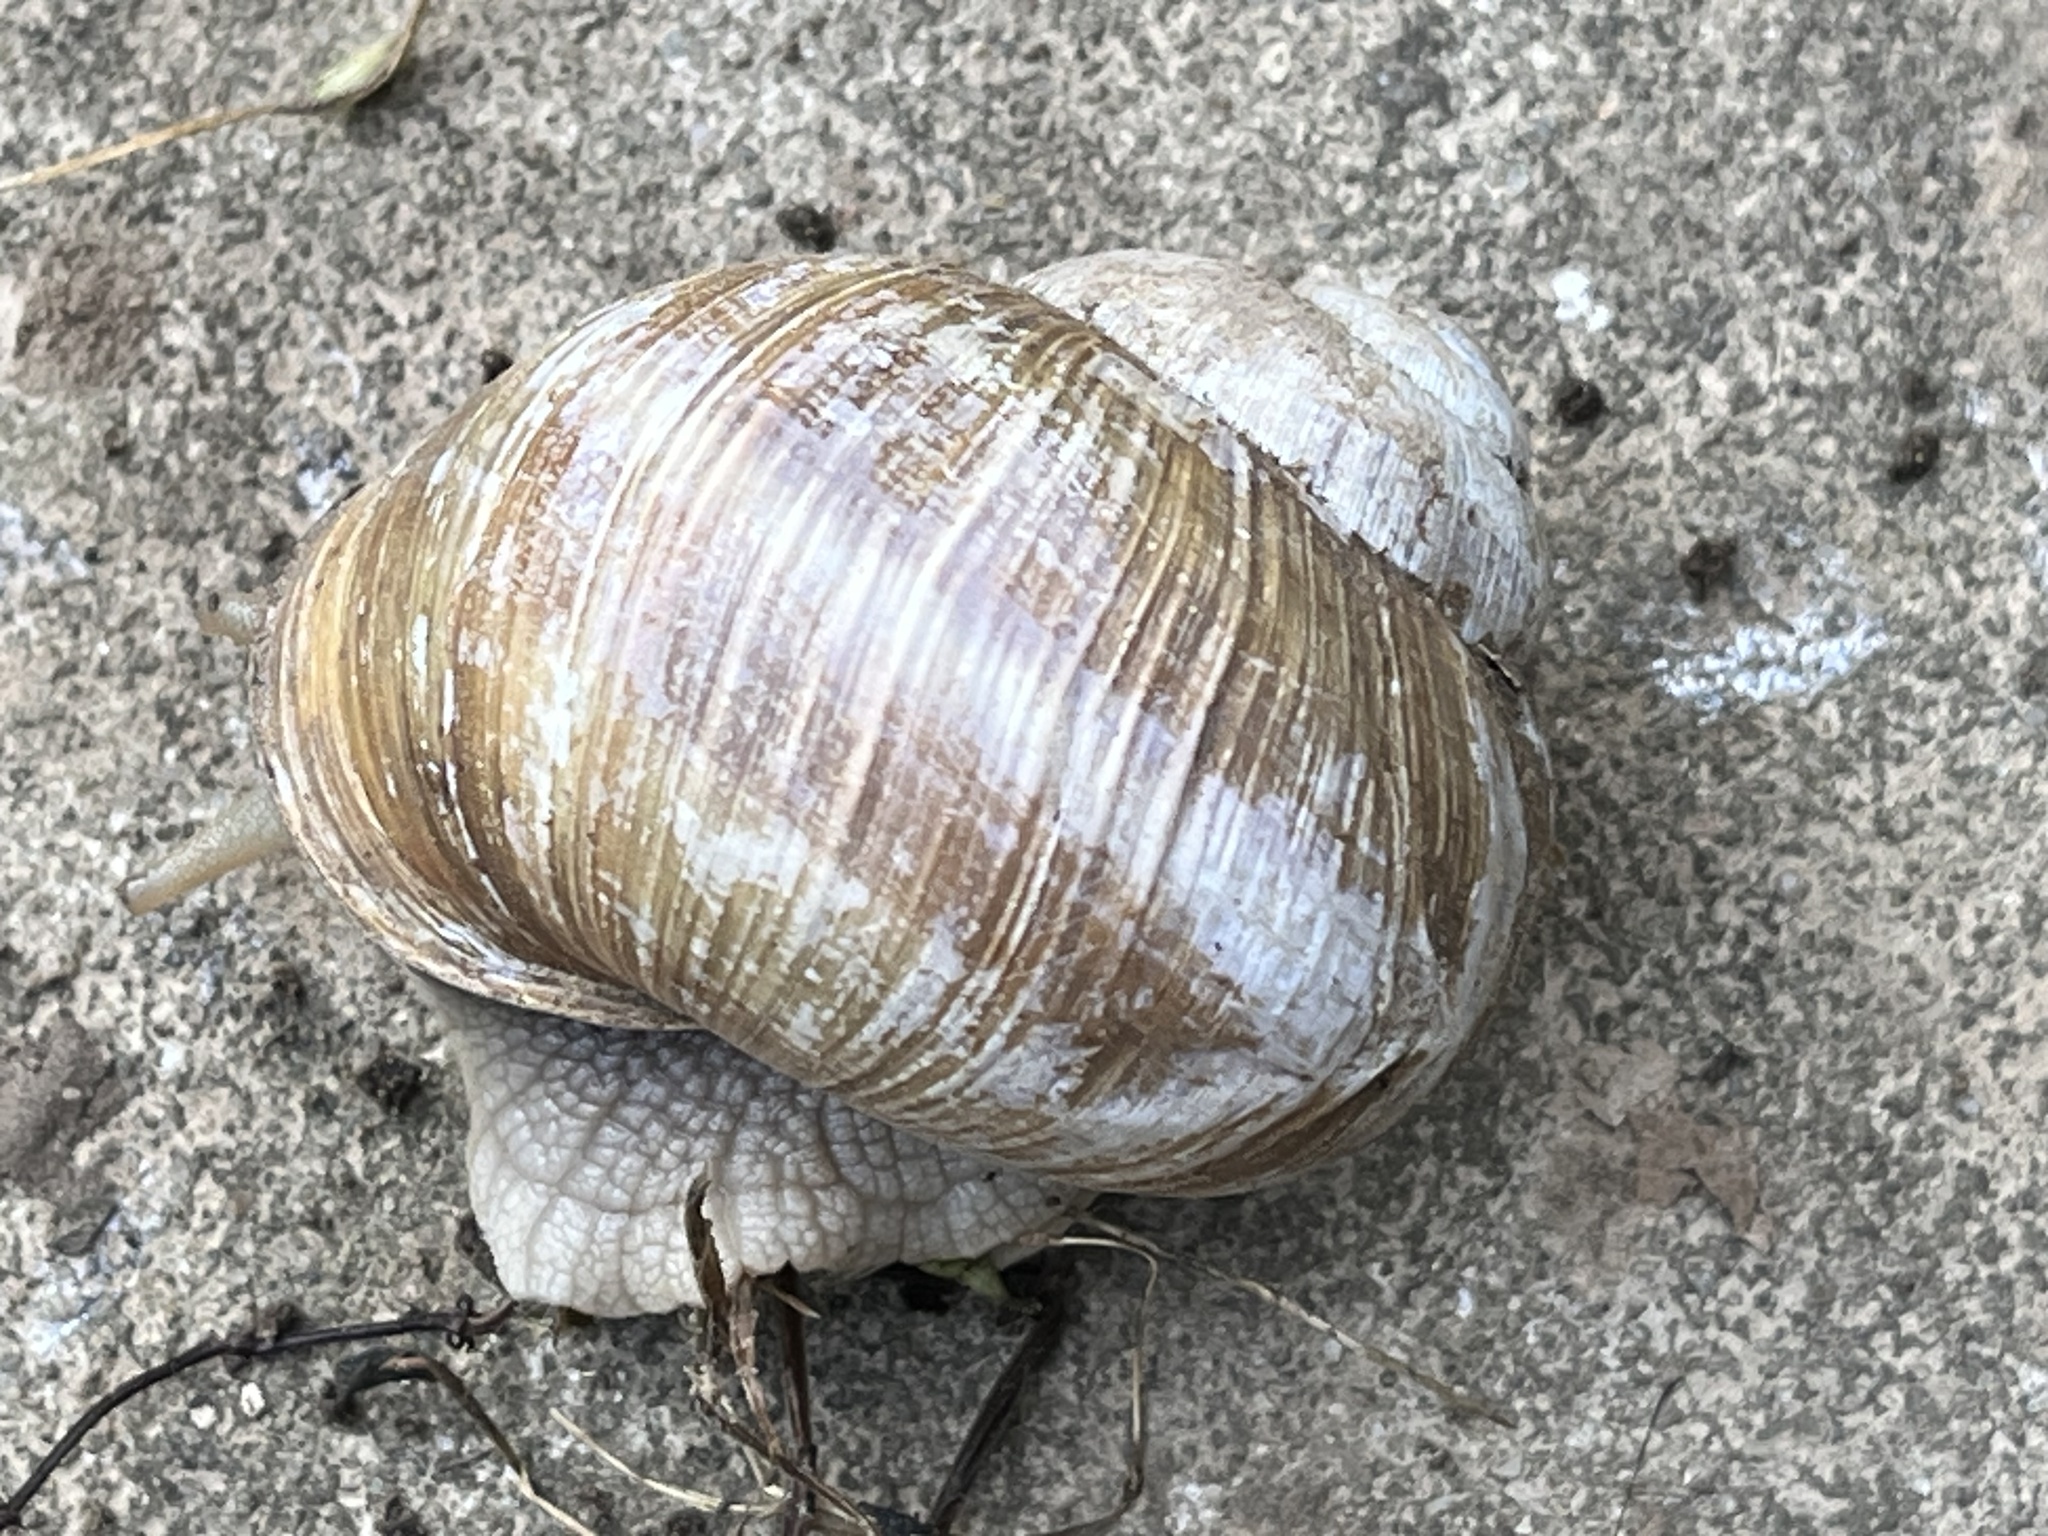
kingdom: Animalia
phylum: Mollusca
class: Gastropoda
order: Stylommatophora
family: Helicidae
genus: Helix
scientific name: Helix pomatia
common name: Roman snail
